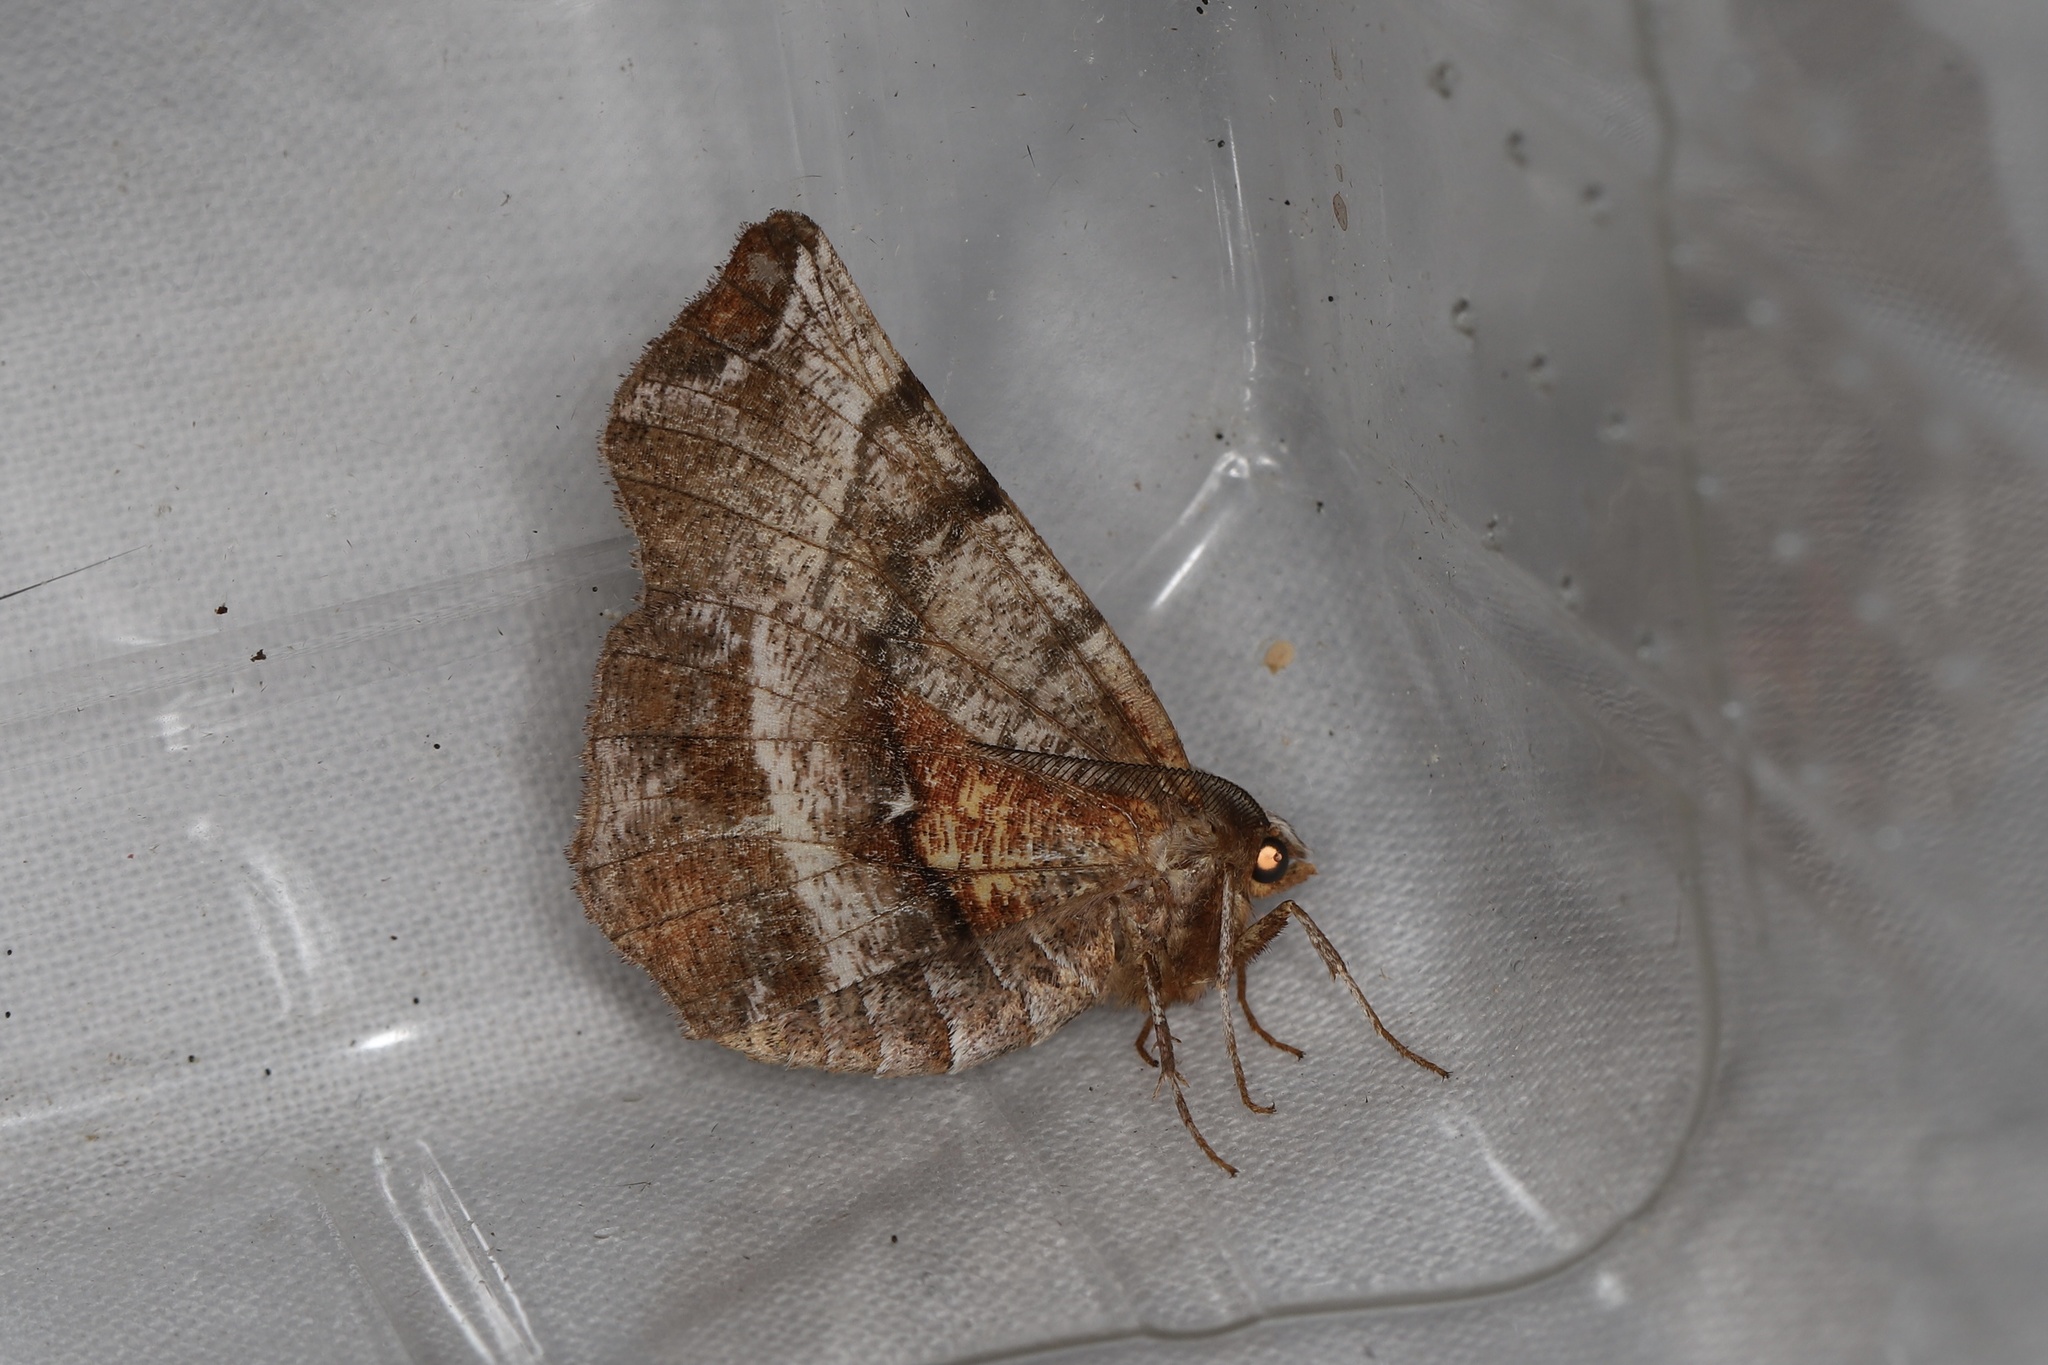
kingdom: Animalia
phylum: Arthropoda
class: Insecta
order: Lepidoptera
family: Geometridae
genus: Selenia
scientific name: Selenia dentaria
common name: Early thorn
